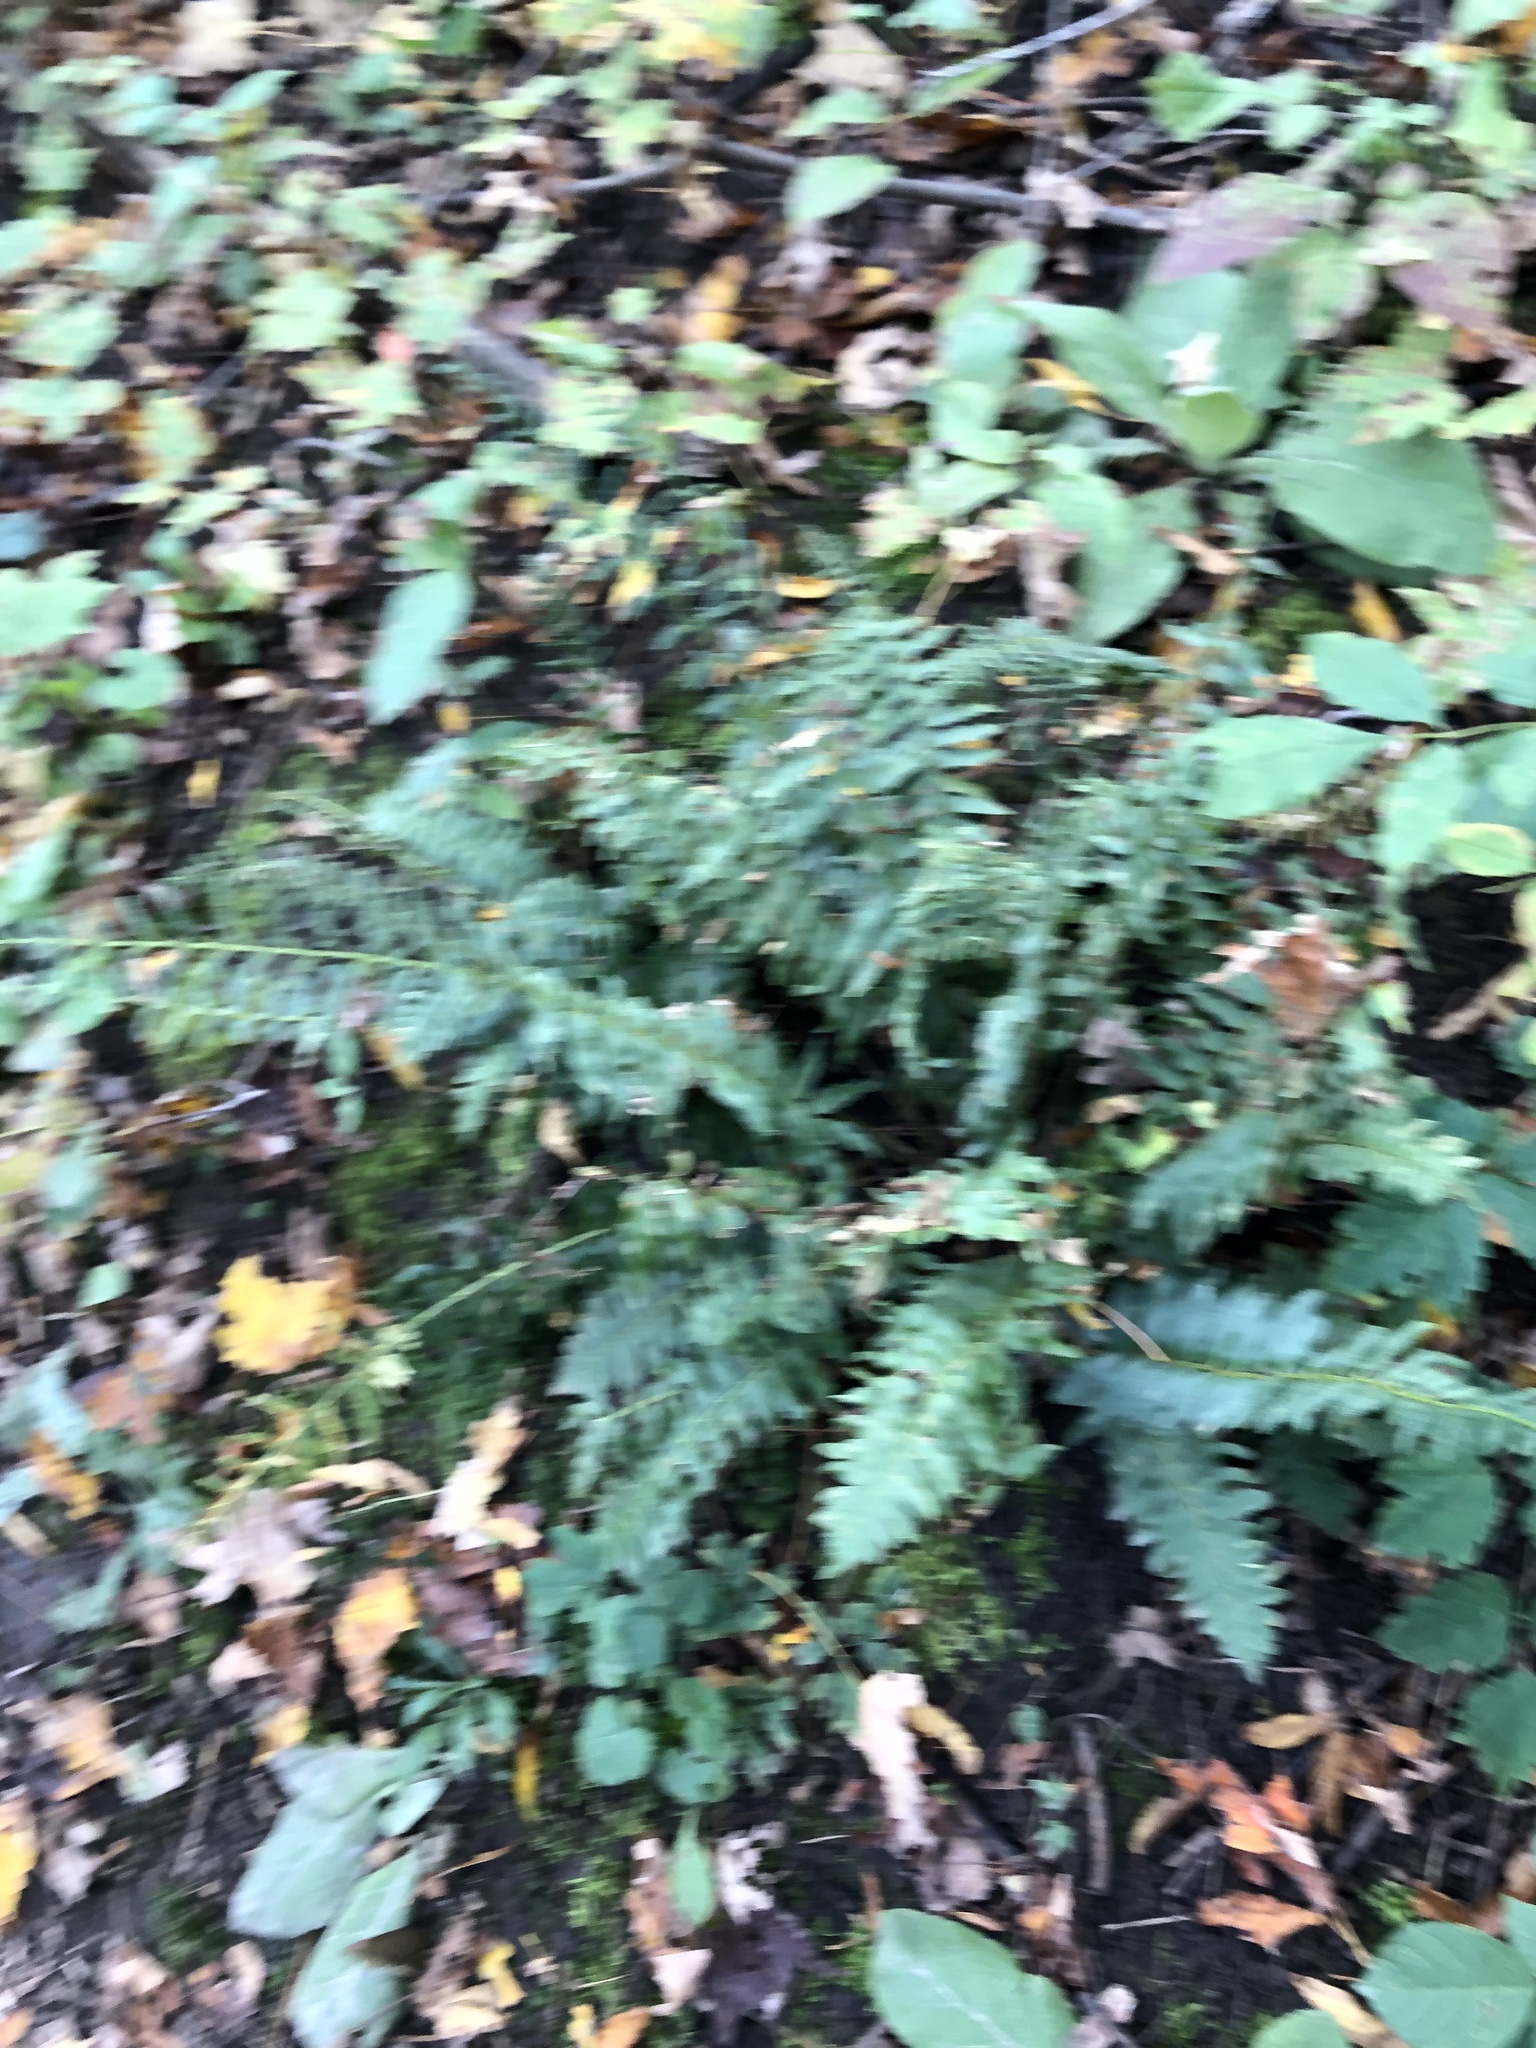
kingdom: Plantae
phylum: Tracheophyta
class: Polypodiopsida
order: Polypodiales
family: Dryopteridaceae
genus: Polystichum
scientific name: Polystichum acrostichoides
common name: Christmas fern
